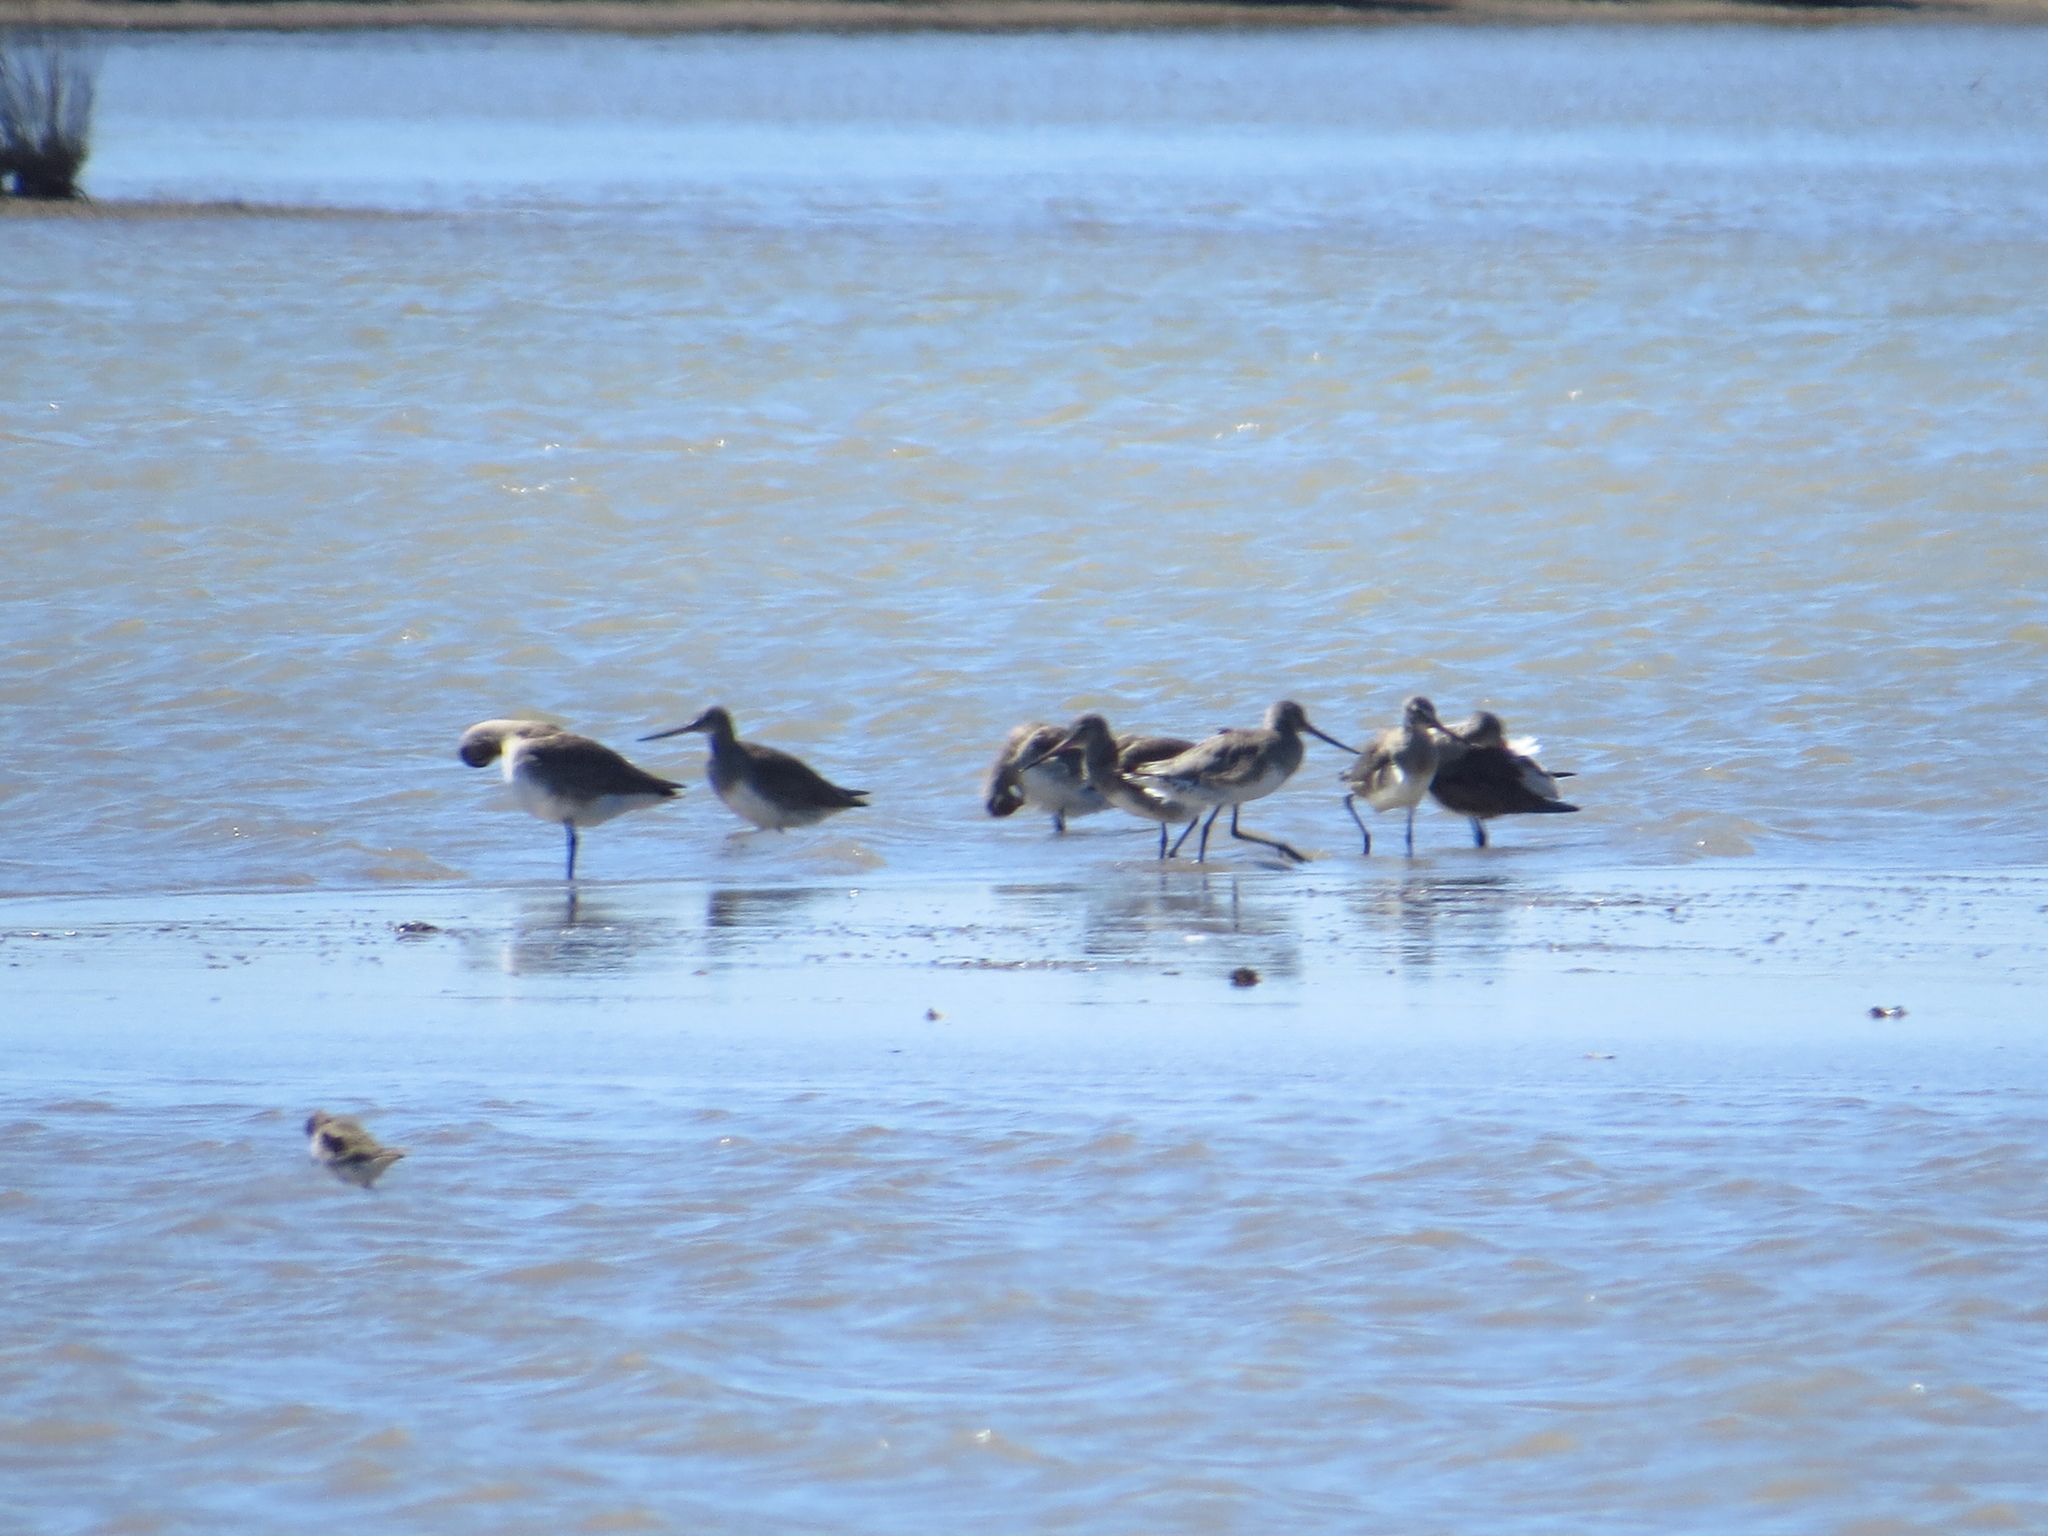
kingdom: Animalia
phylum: Chordata
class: Aves
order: Charadriiformes
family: Scolopacidae
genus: Limosa
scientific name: Limosa haemastica
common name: Hudsonian godwit
